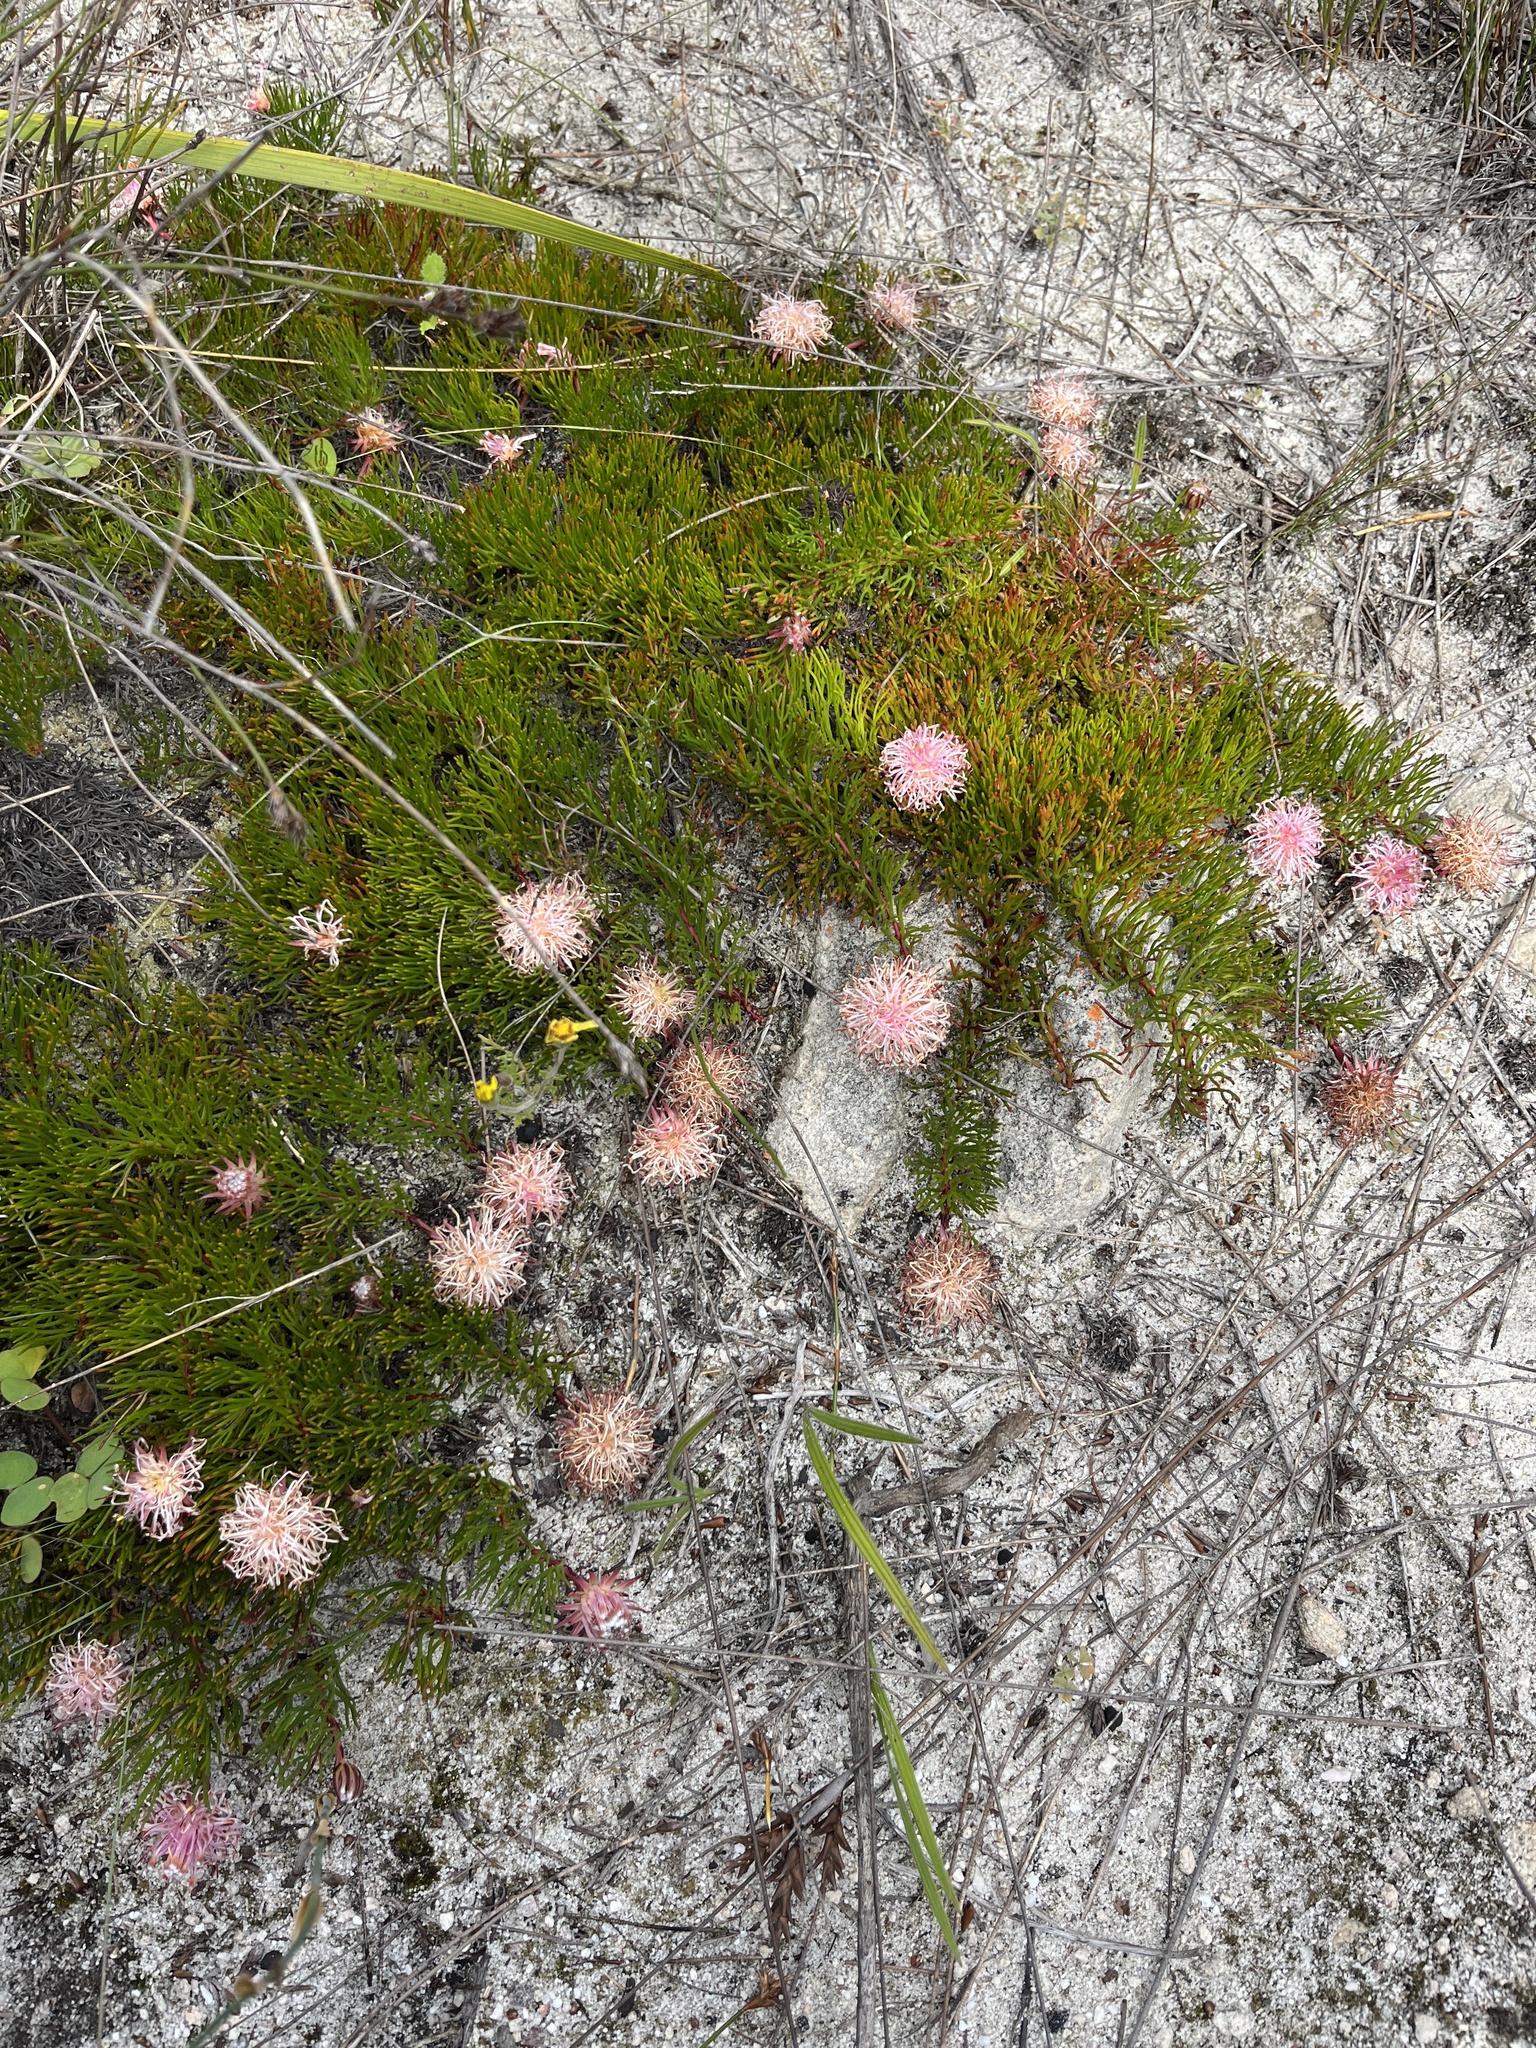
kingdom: Plantae
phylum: Tracheophyta
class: Magnoliopsida
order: Proteales
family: Proteaceae
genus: Serruria
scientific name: Serruria phylicoides
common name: Bearded spiderhead
